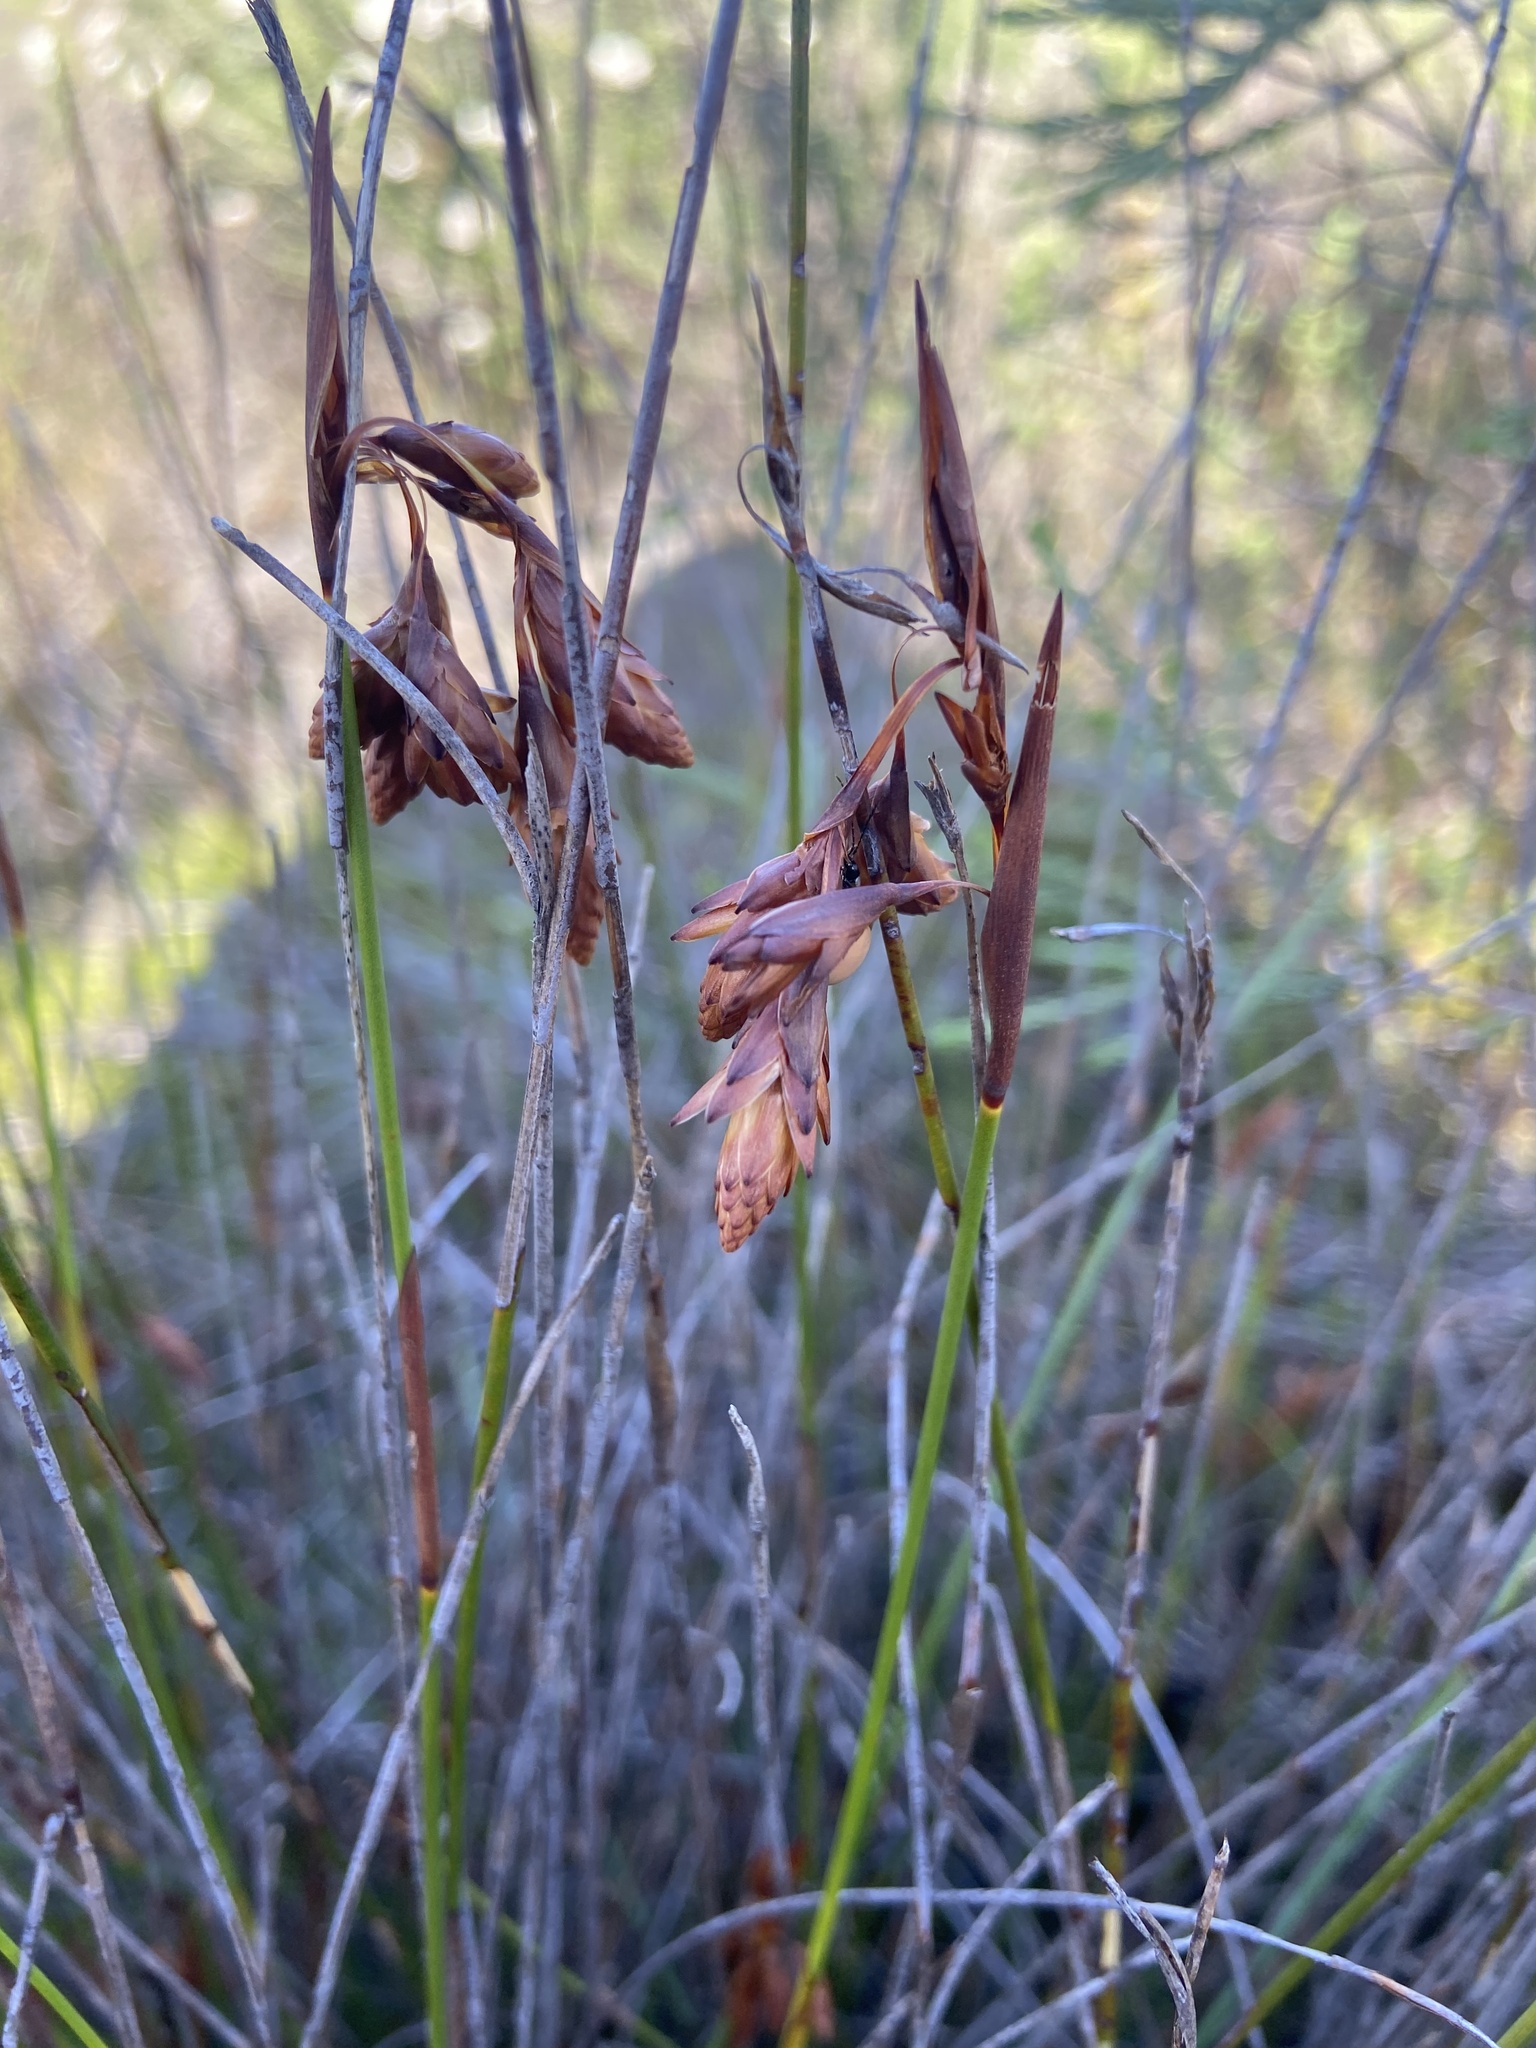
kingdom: Plantae
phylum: Tracheophyta
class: Liliopsida
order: Poales
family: Restionaceae
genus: Staberoha
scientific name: Staberoha distachyos
